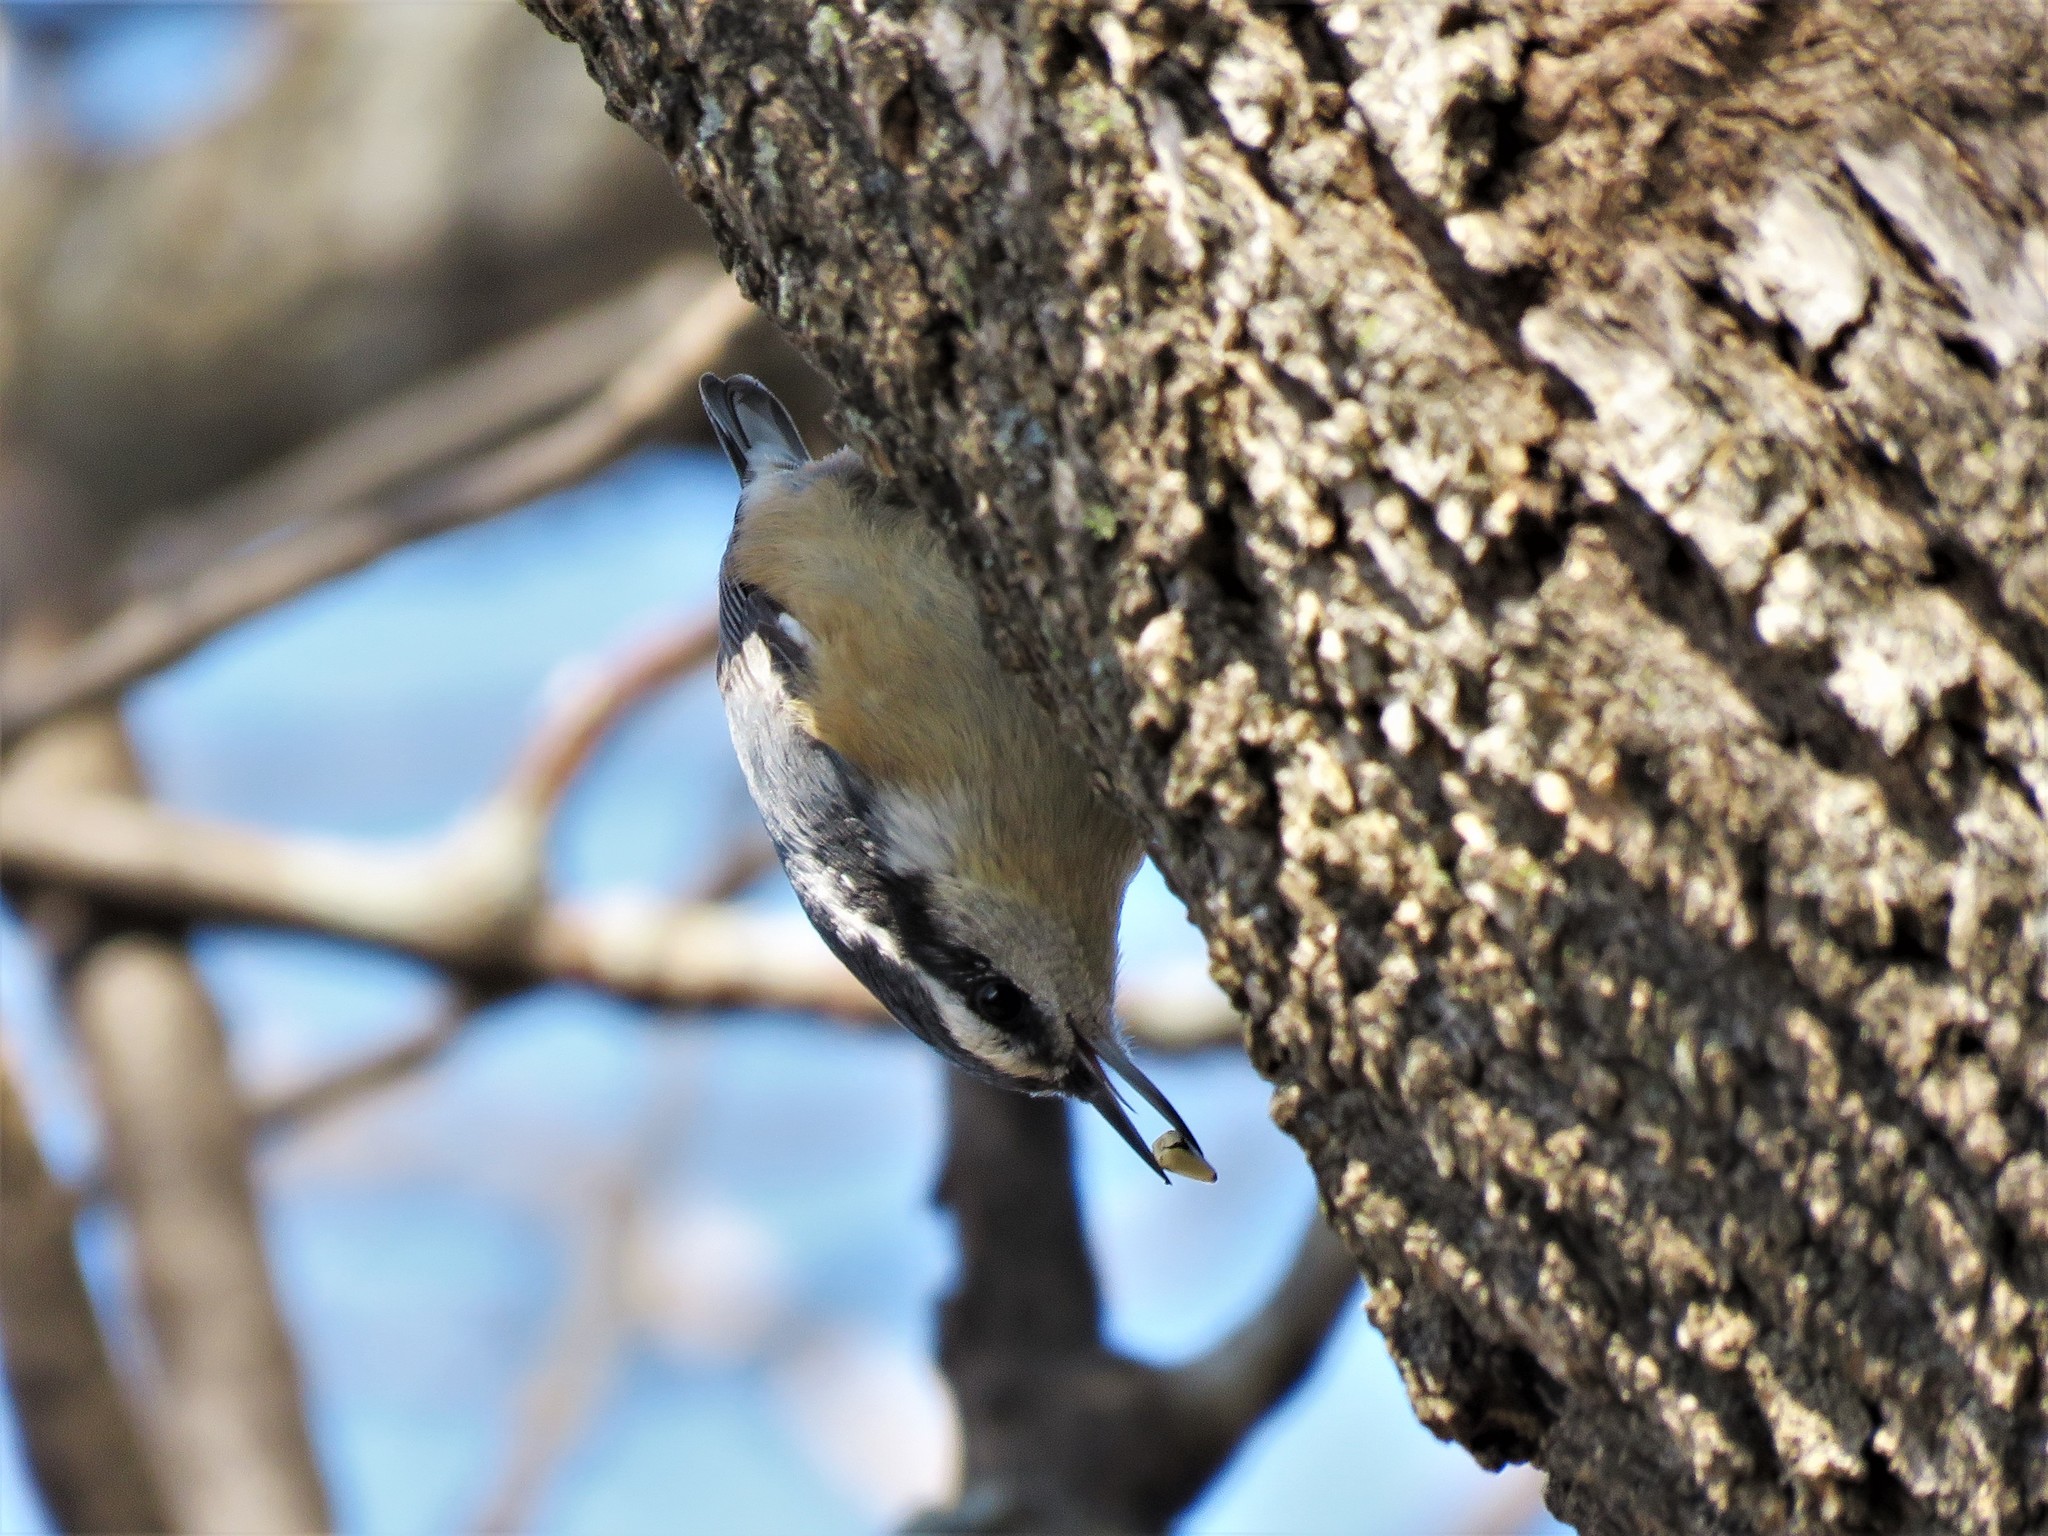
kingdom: Animalia
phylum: Chordata
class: Aves
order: Passeriformes
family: Sittidae
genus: Sitta
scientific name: Sitta canadensis
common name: Red-breasted nuthatch
